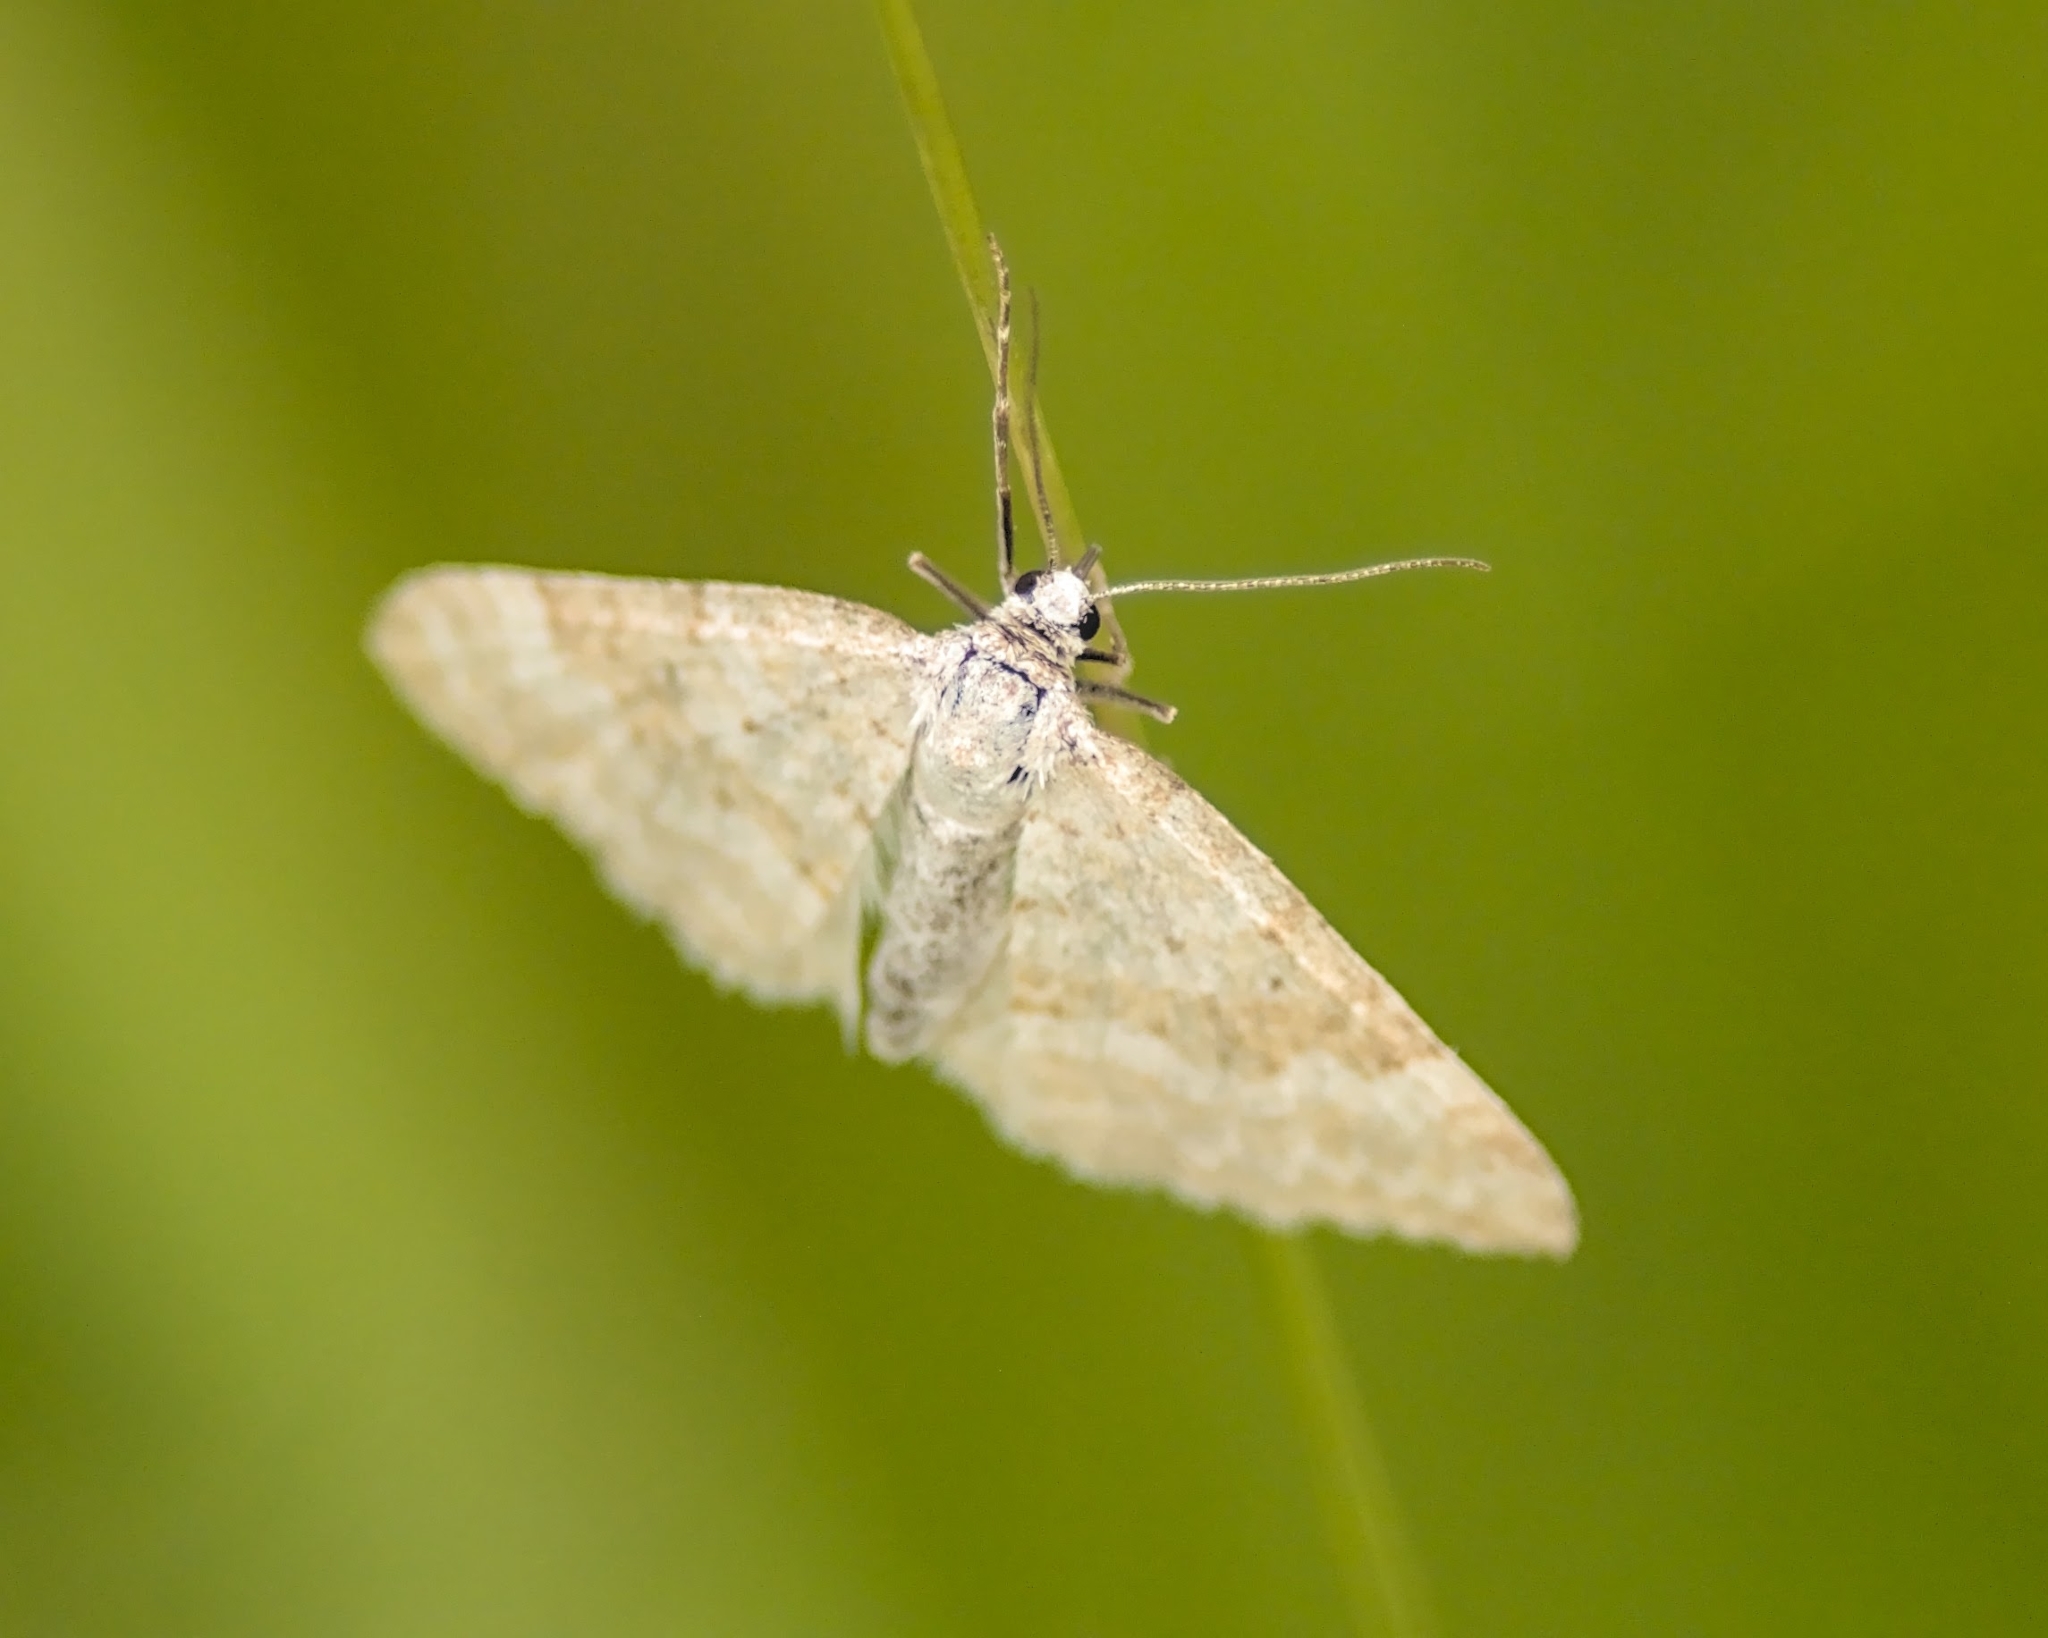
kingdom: Animalia
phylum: Arthropoda
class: Insecta
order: Lepidoptera
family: Geometridae
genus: Perizoma
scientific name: Perizoma albulata
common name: Grass rivulet
